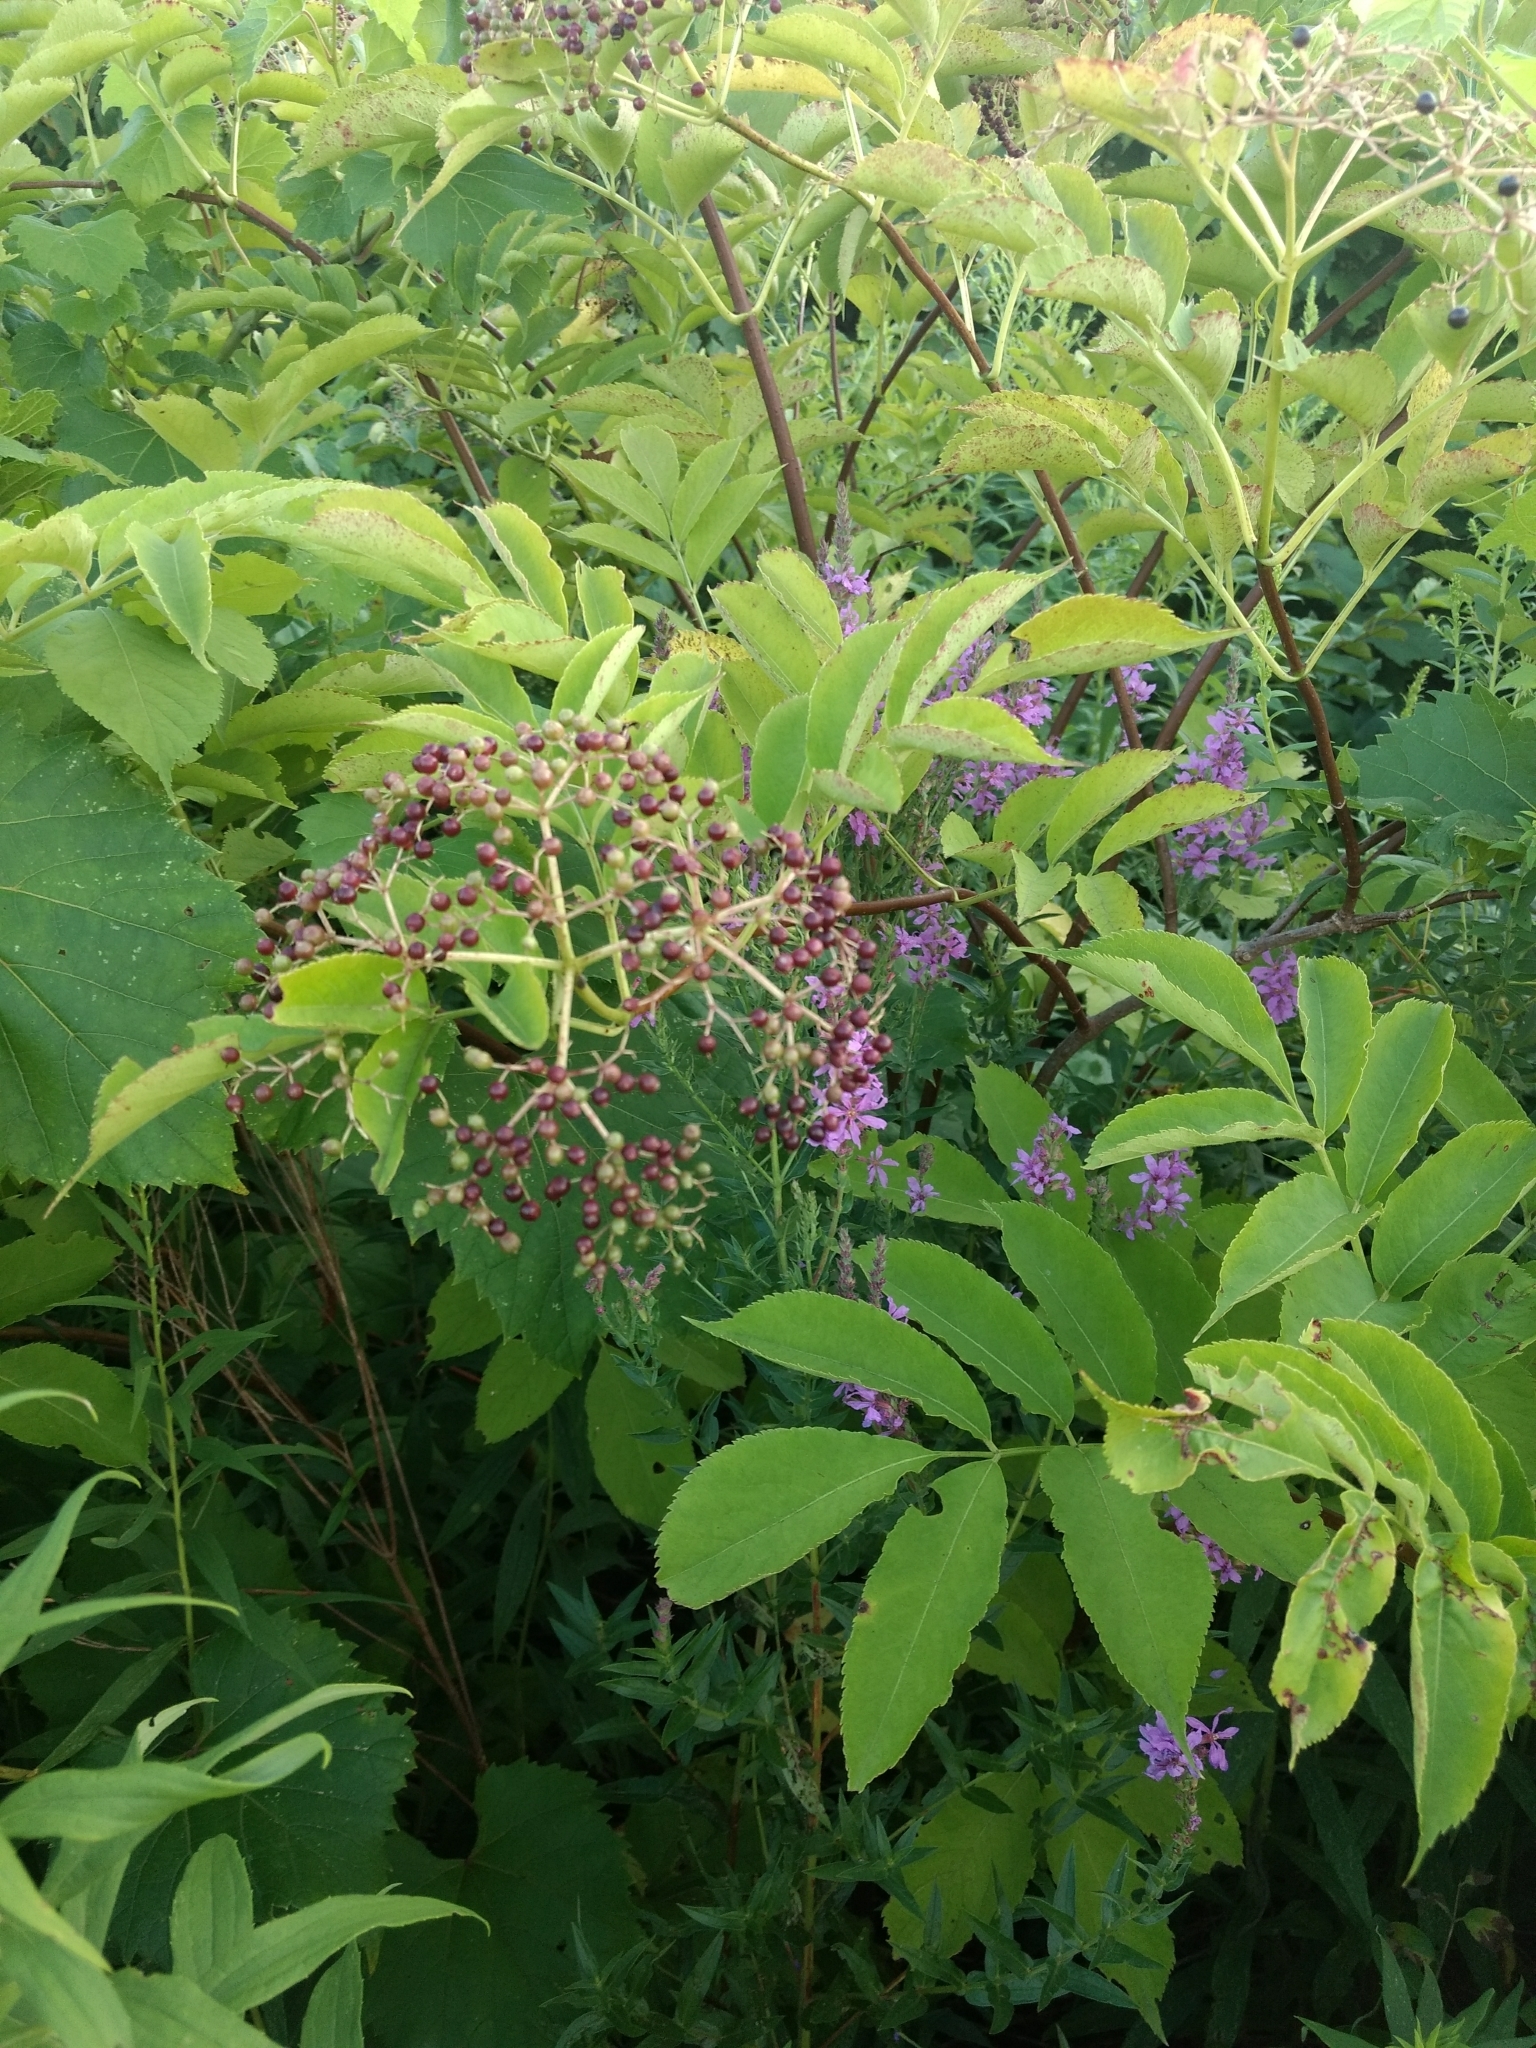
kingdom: Plantae
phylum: Tracheophyta
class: Magnoliopsida
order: Dipsacales
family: Viburnaceae
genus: Sambucus
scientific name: Sambucus canadensis
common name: American elder
